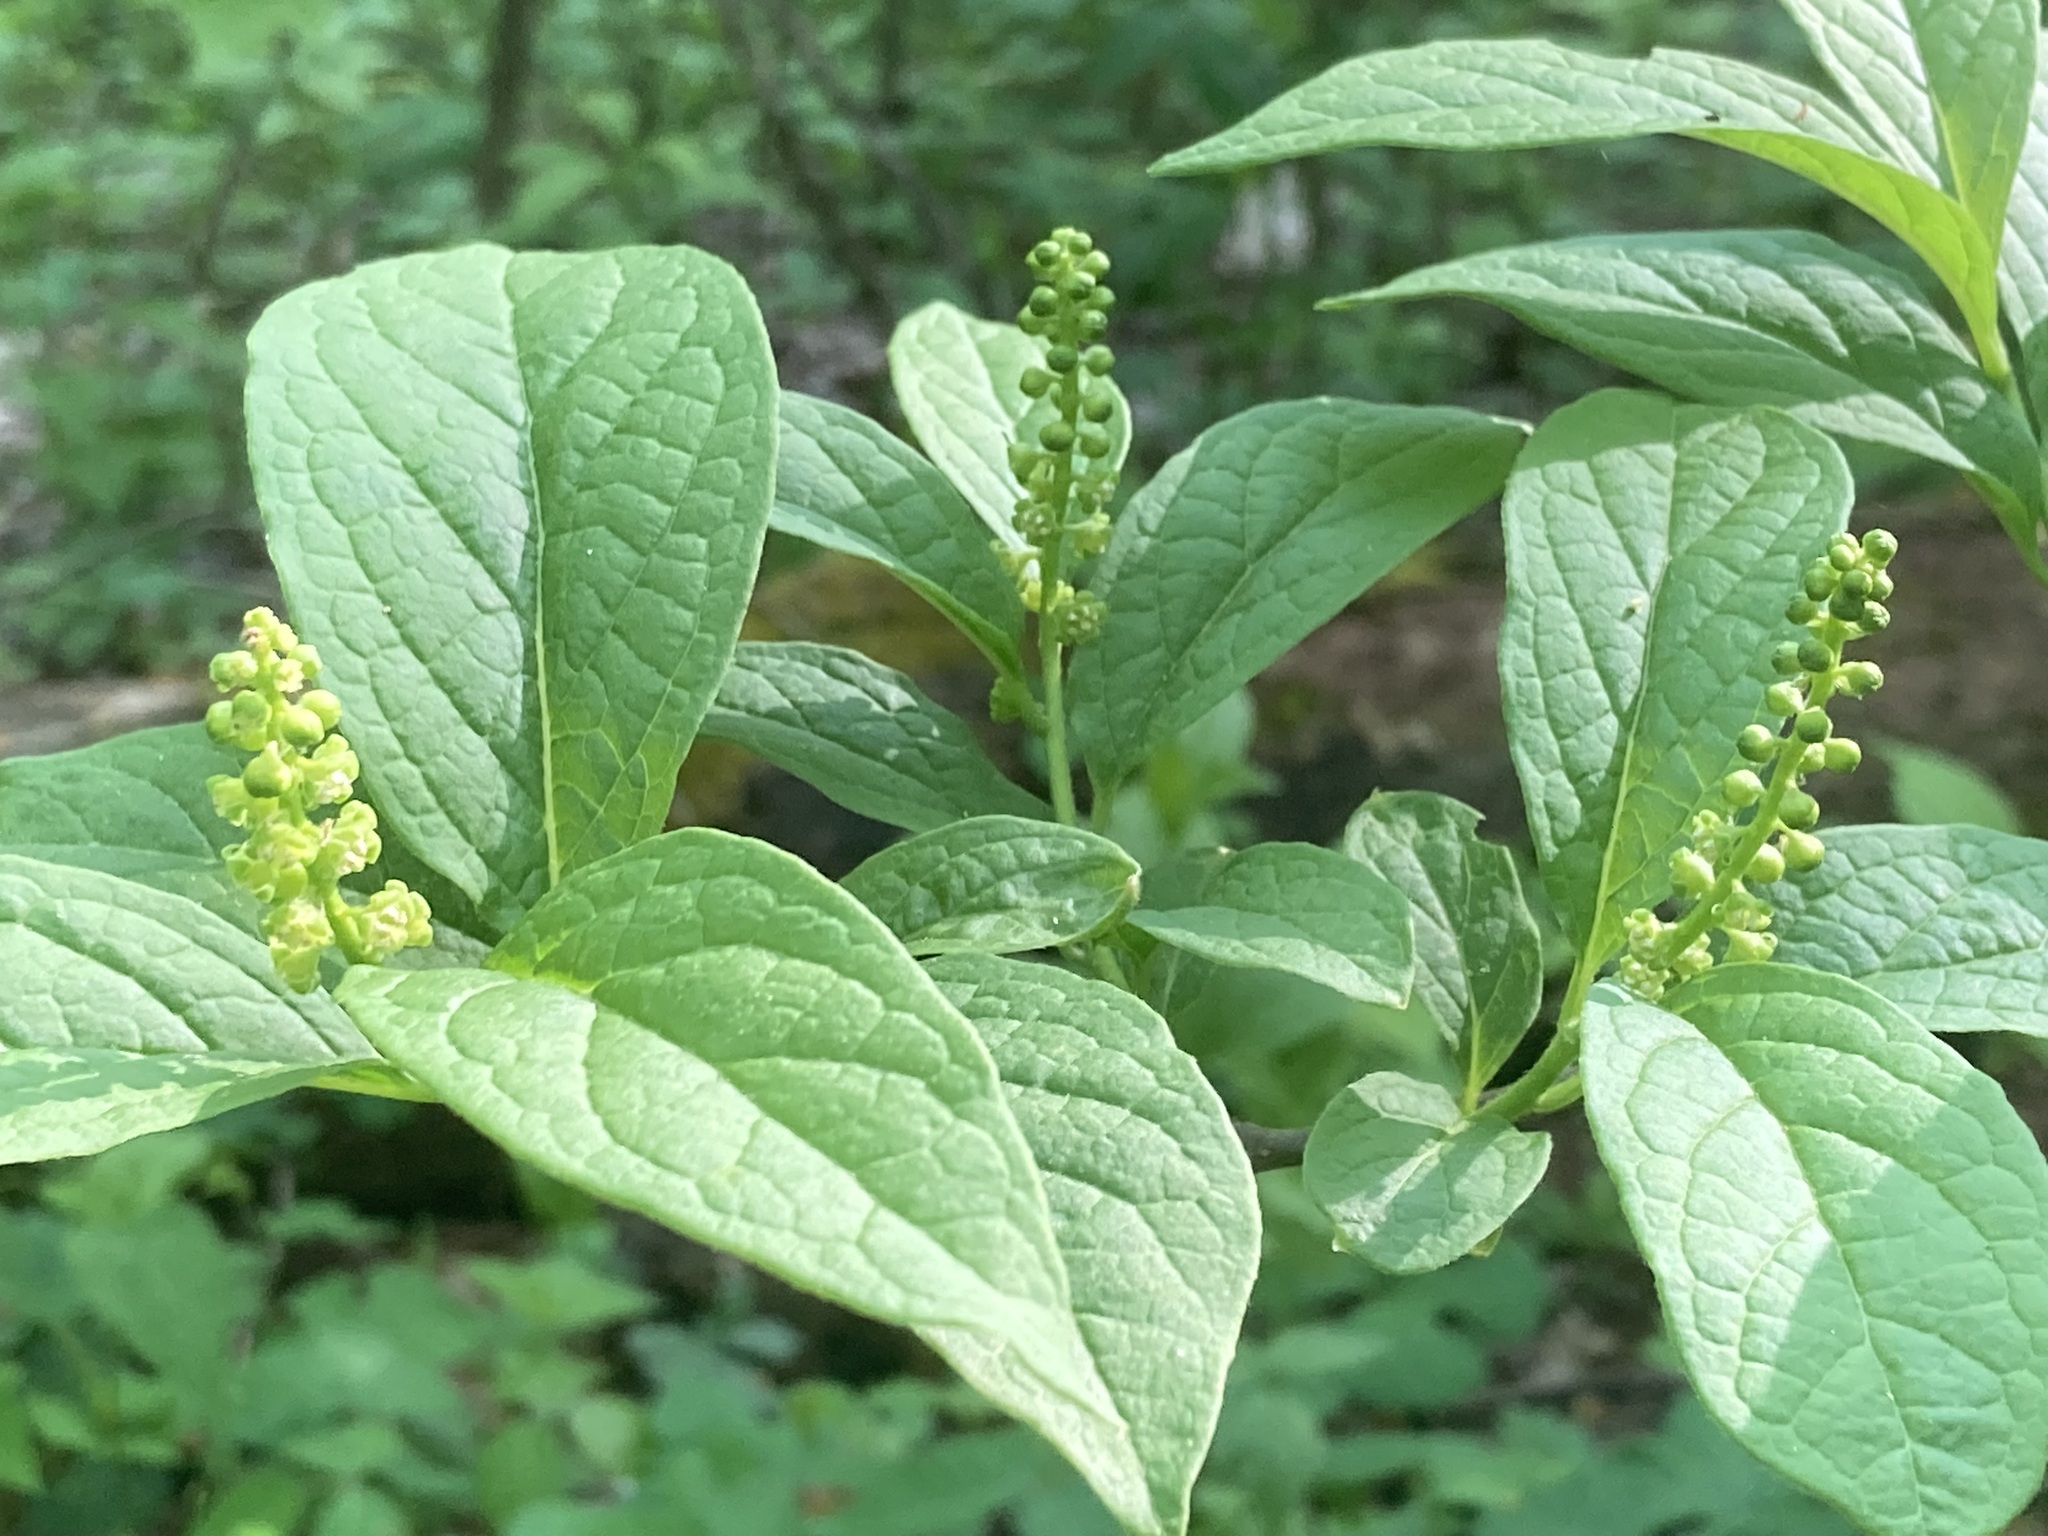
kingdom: Plantae
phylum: Tracheophyta
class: Magnoliopsida
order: Santalales
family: Cervantesiaceae
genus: Pyrularia
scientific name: Pyrularia pubera
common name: Oilnut
